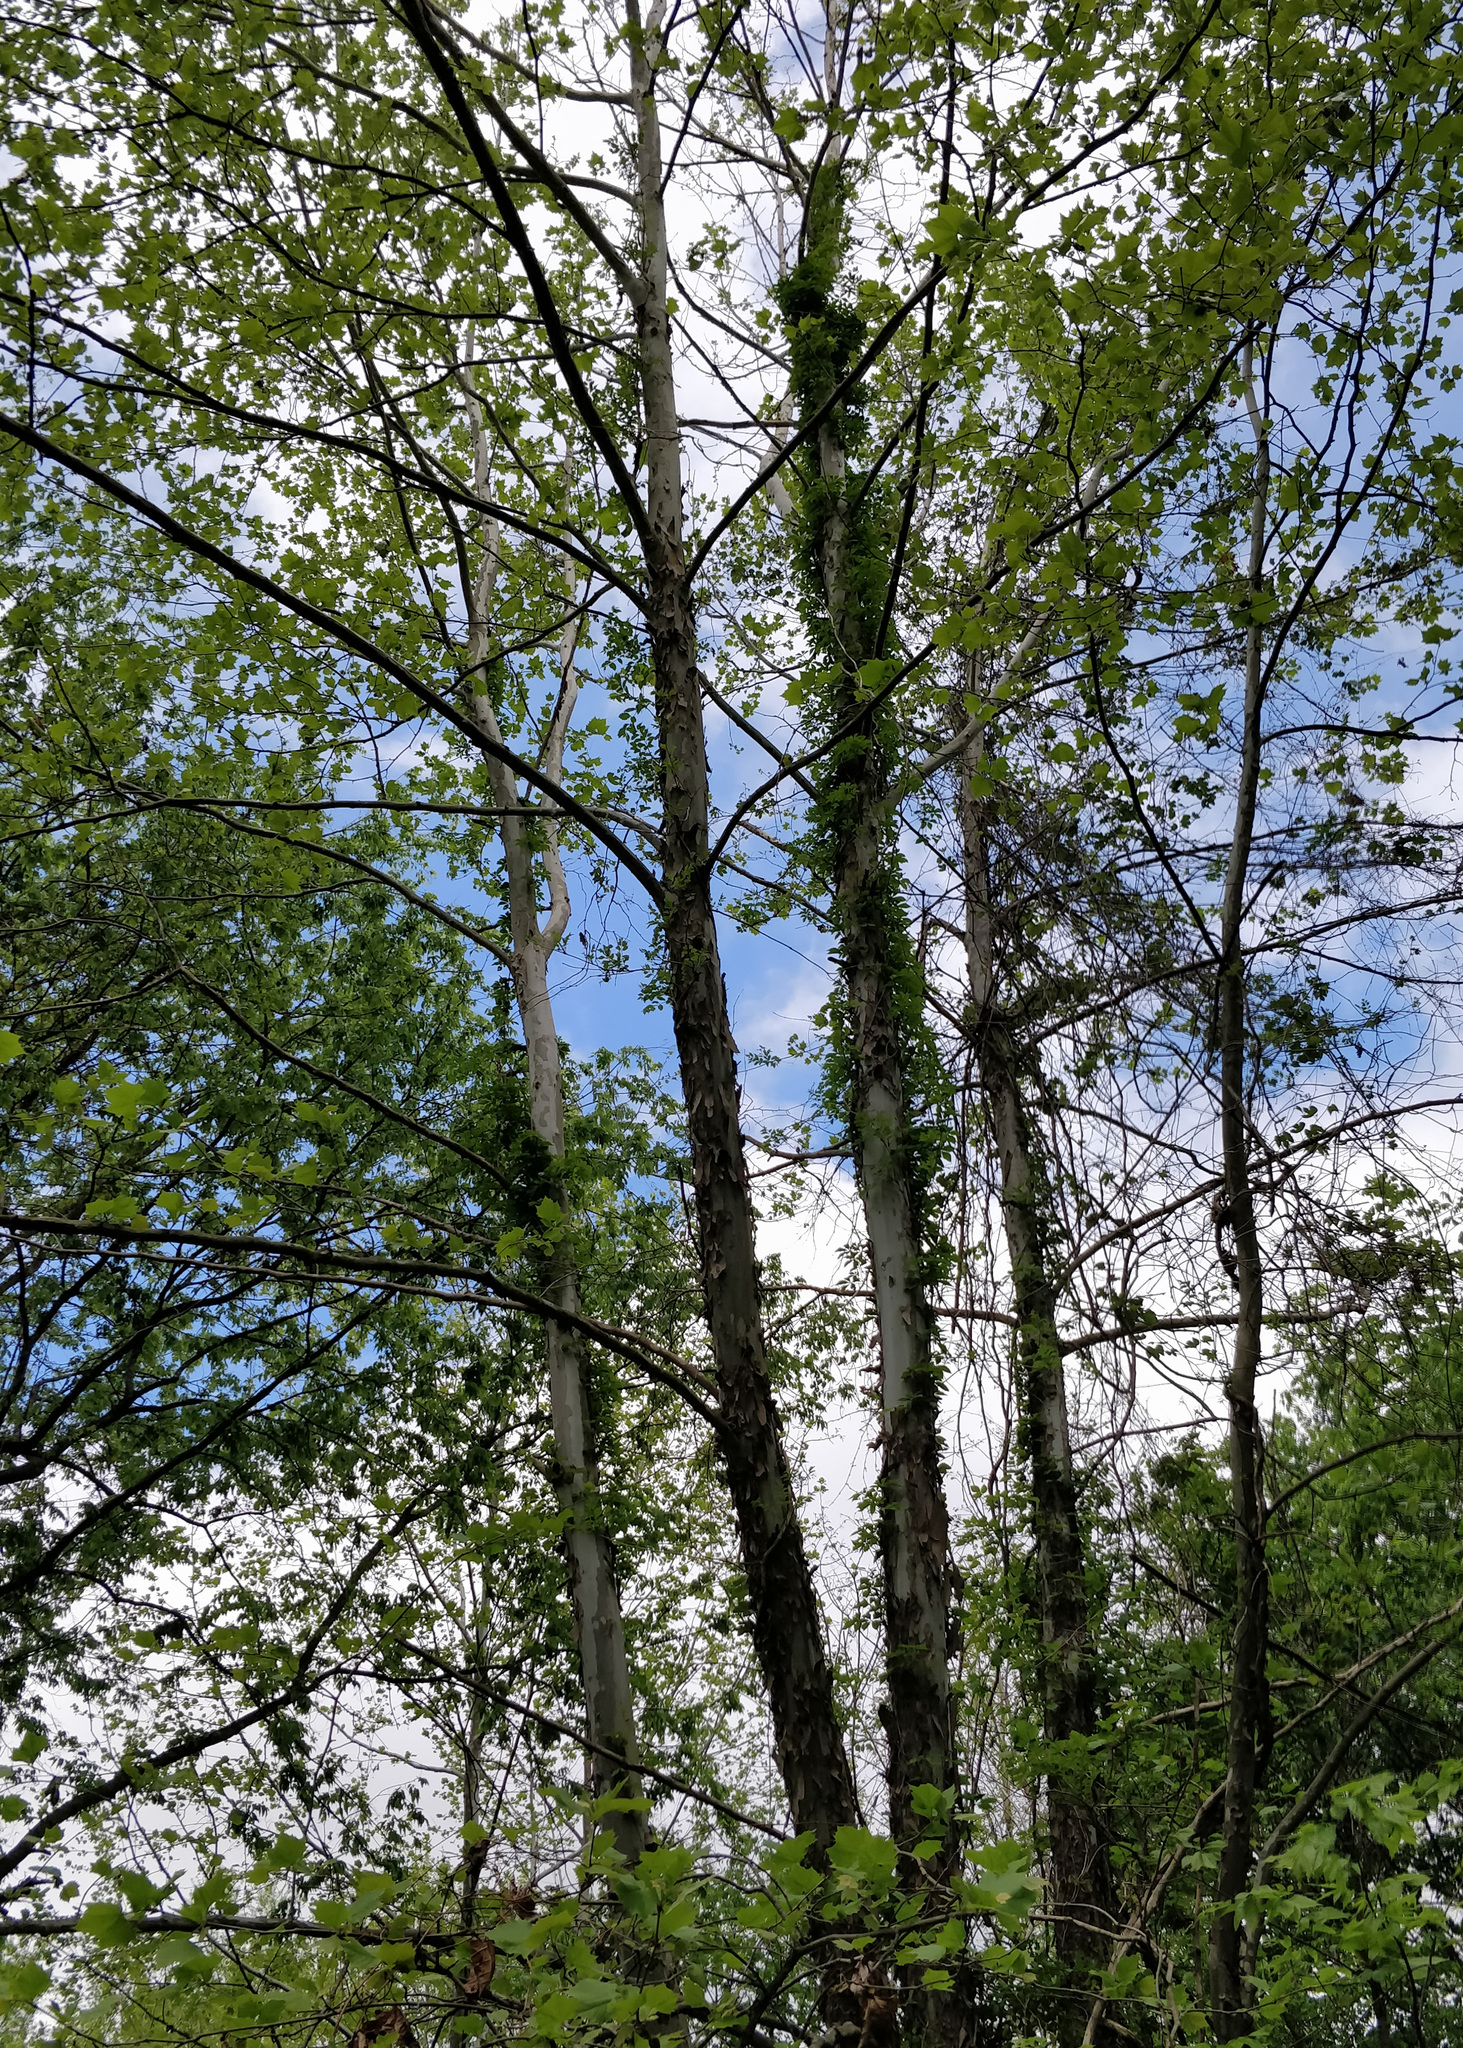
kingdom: Plantae
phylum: Tracheophyta
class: Magnoliopsida
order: Proteales
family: Platanaceae
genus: Platanus
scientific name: Platanus occidentalis
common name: American sycamore
